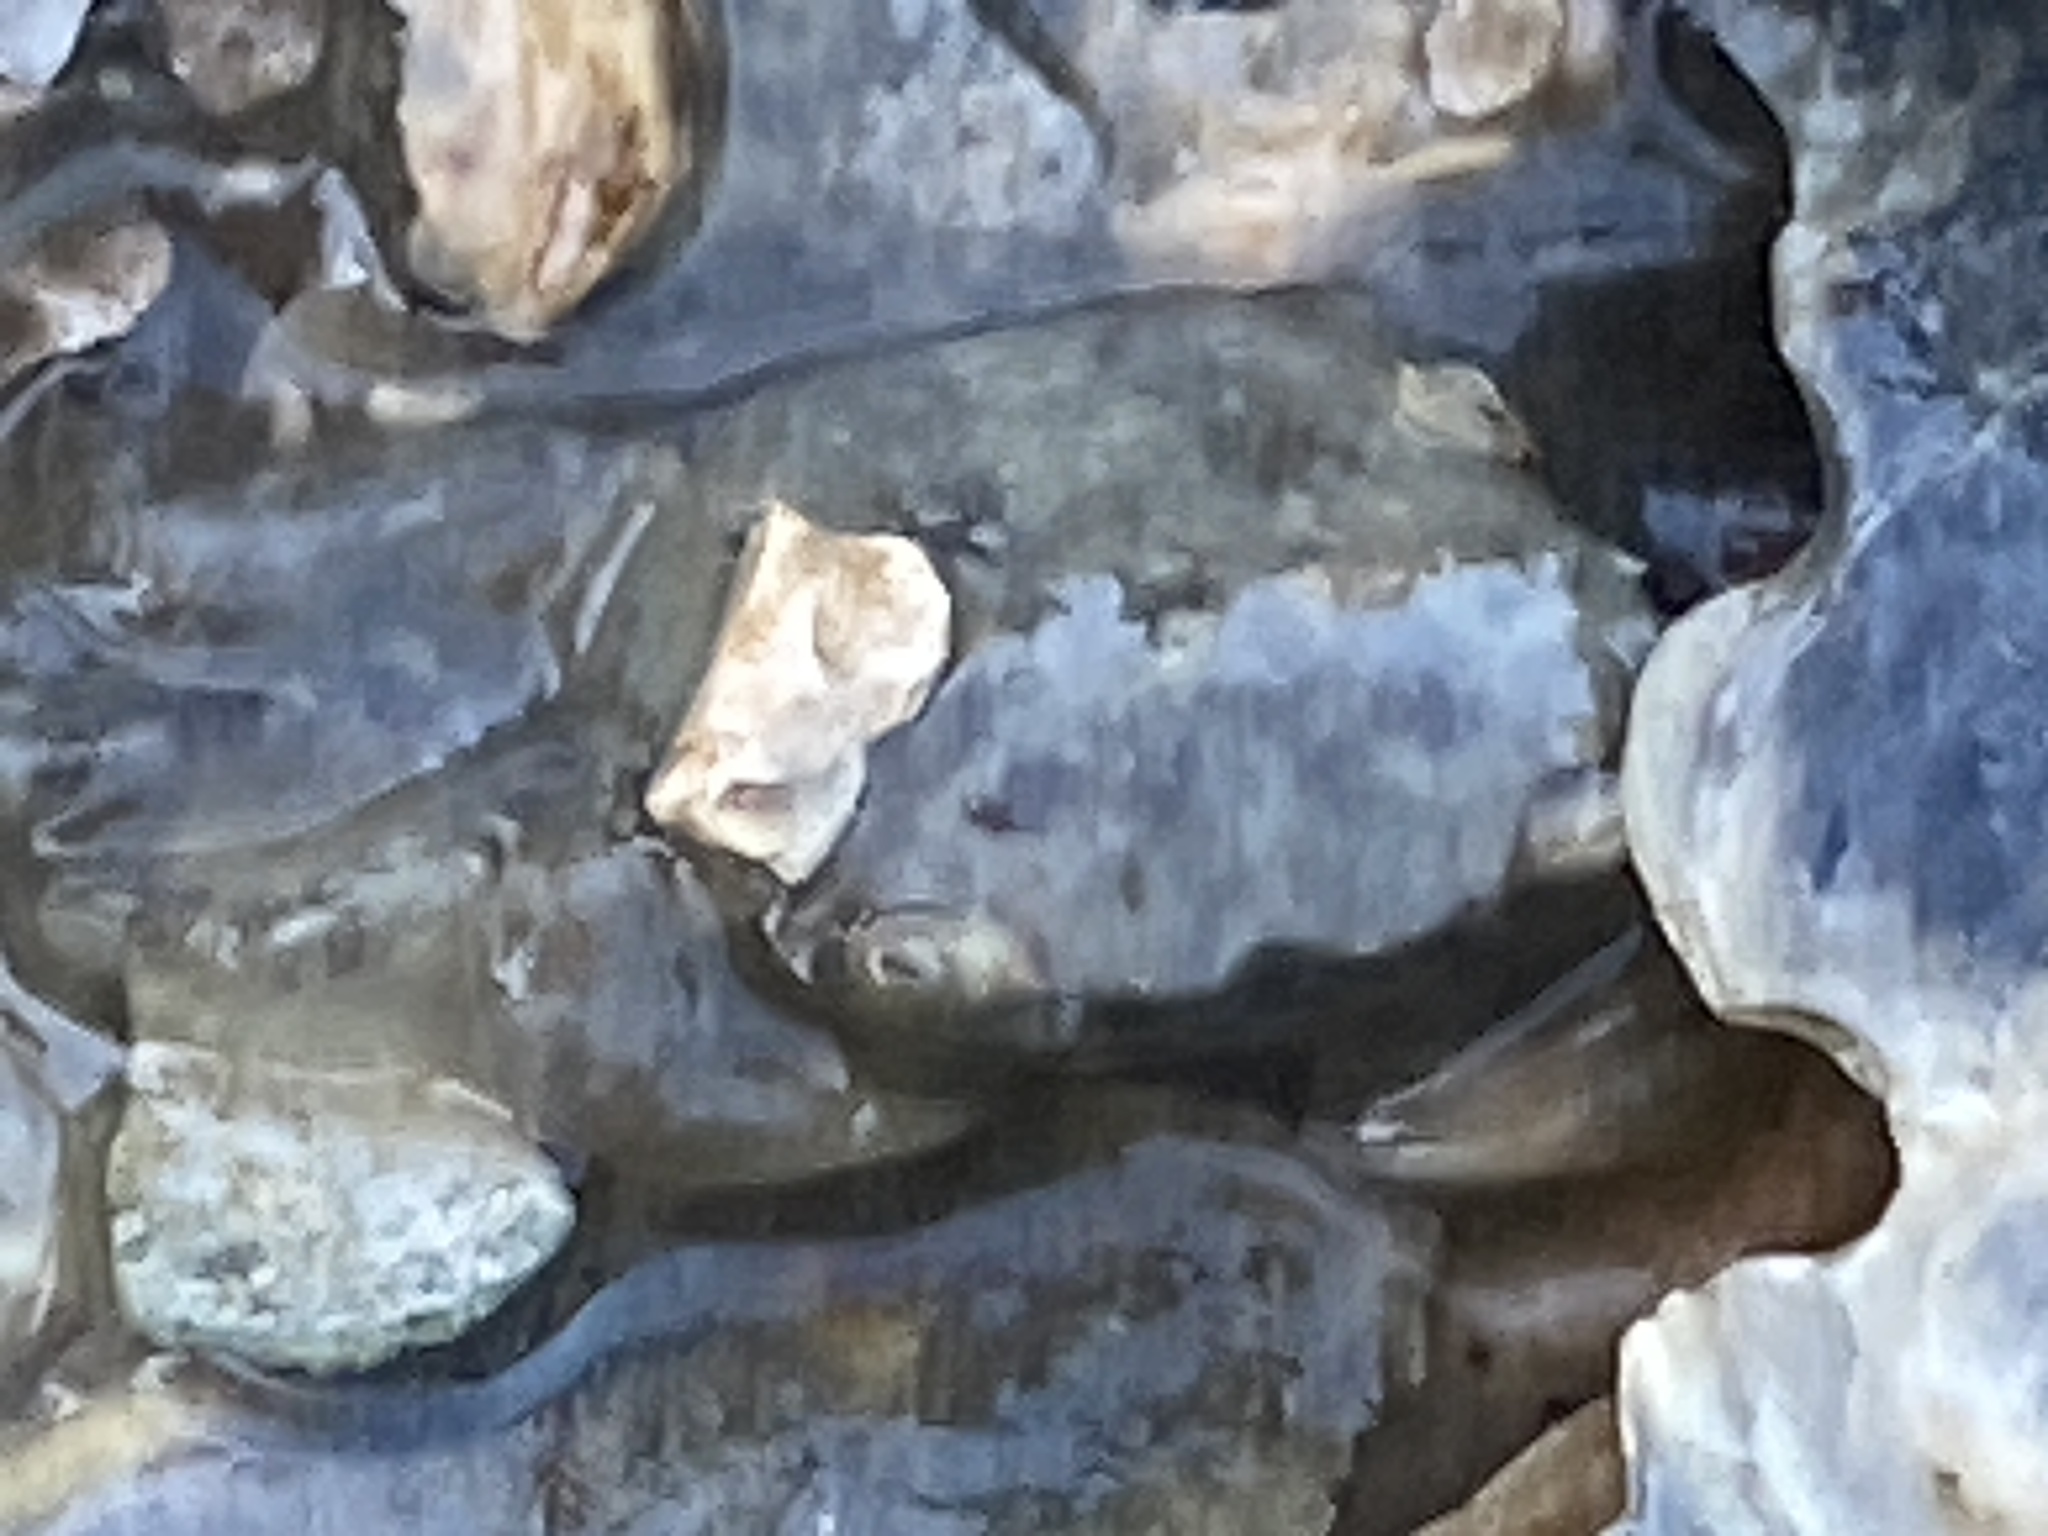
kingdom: Animalia
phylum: Arthropoda
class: Malacostraca
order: Decapoda
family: Varunidae
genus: Hemigrapsus
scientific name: Hemigrapsus oregonensis
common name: Yellow shore crab
